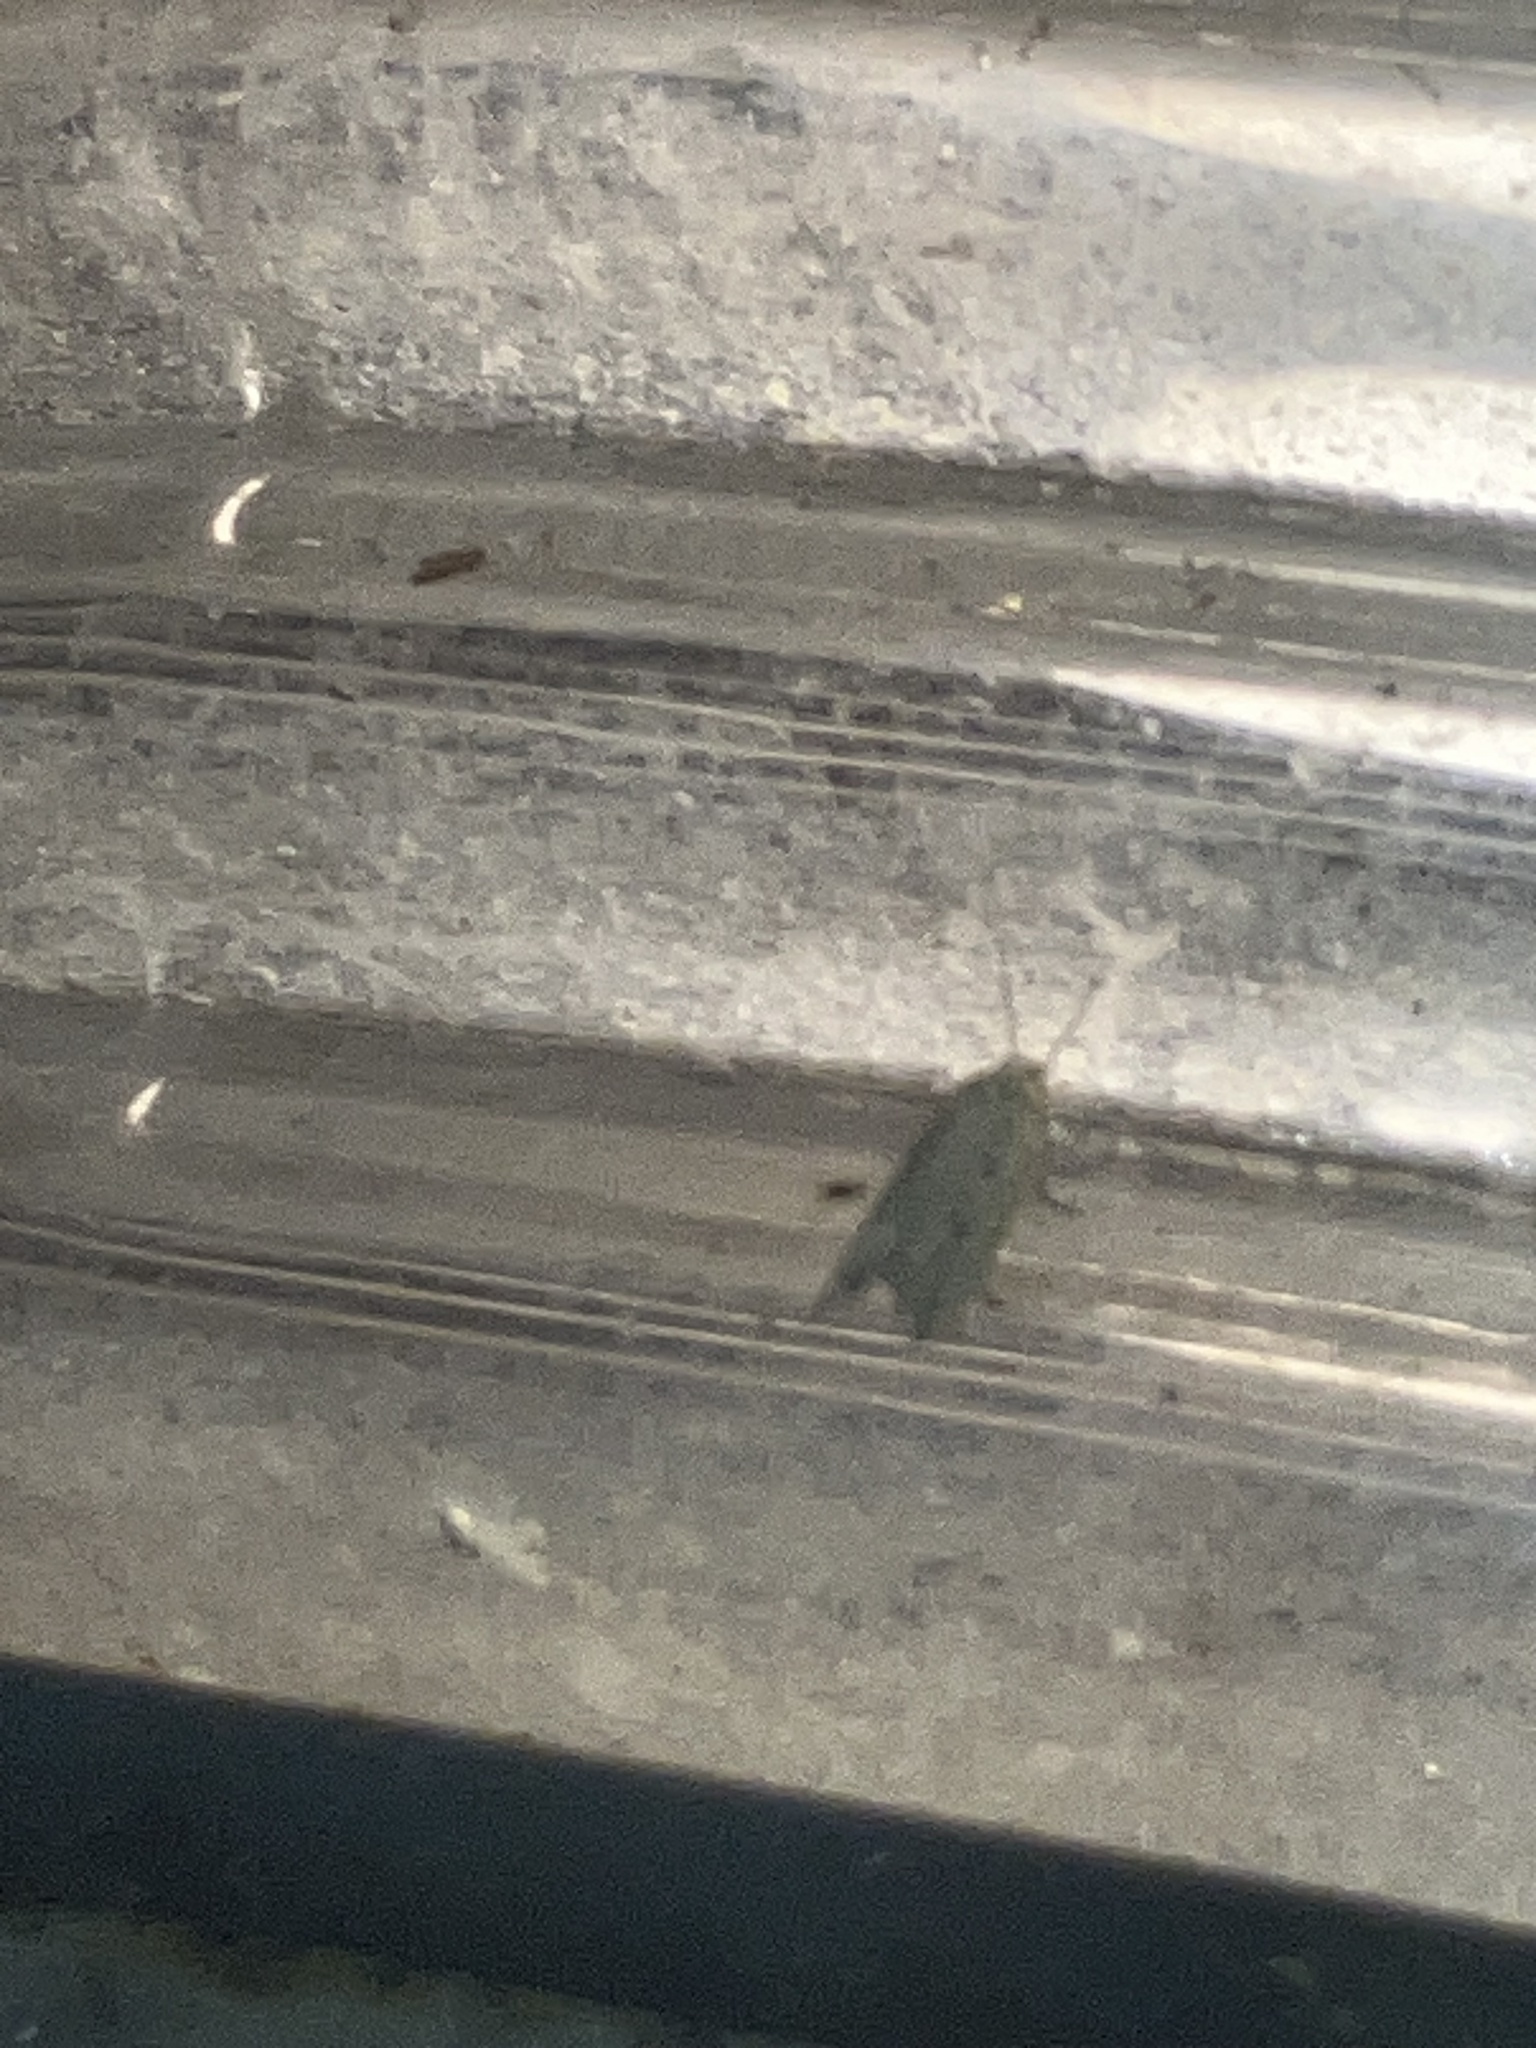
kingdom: Animalia
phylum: Arthropoda
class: Insecta
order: Lepidoptera
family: Tortricidae
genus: Bactra
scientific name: Bactra
